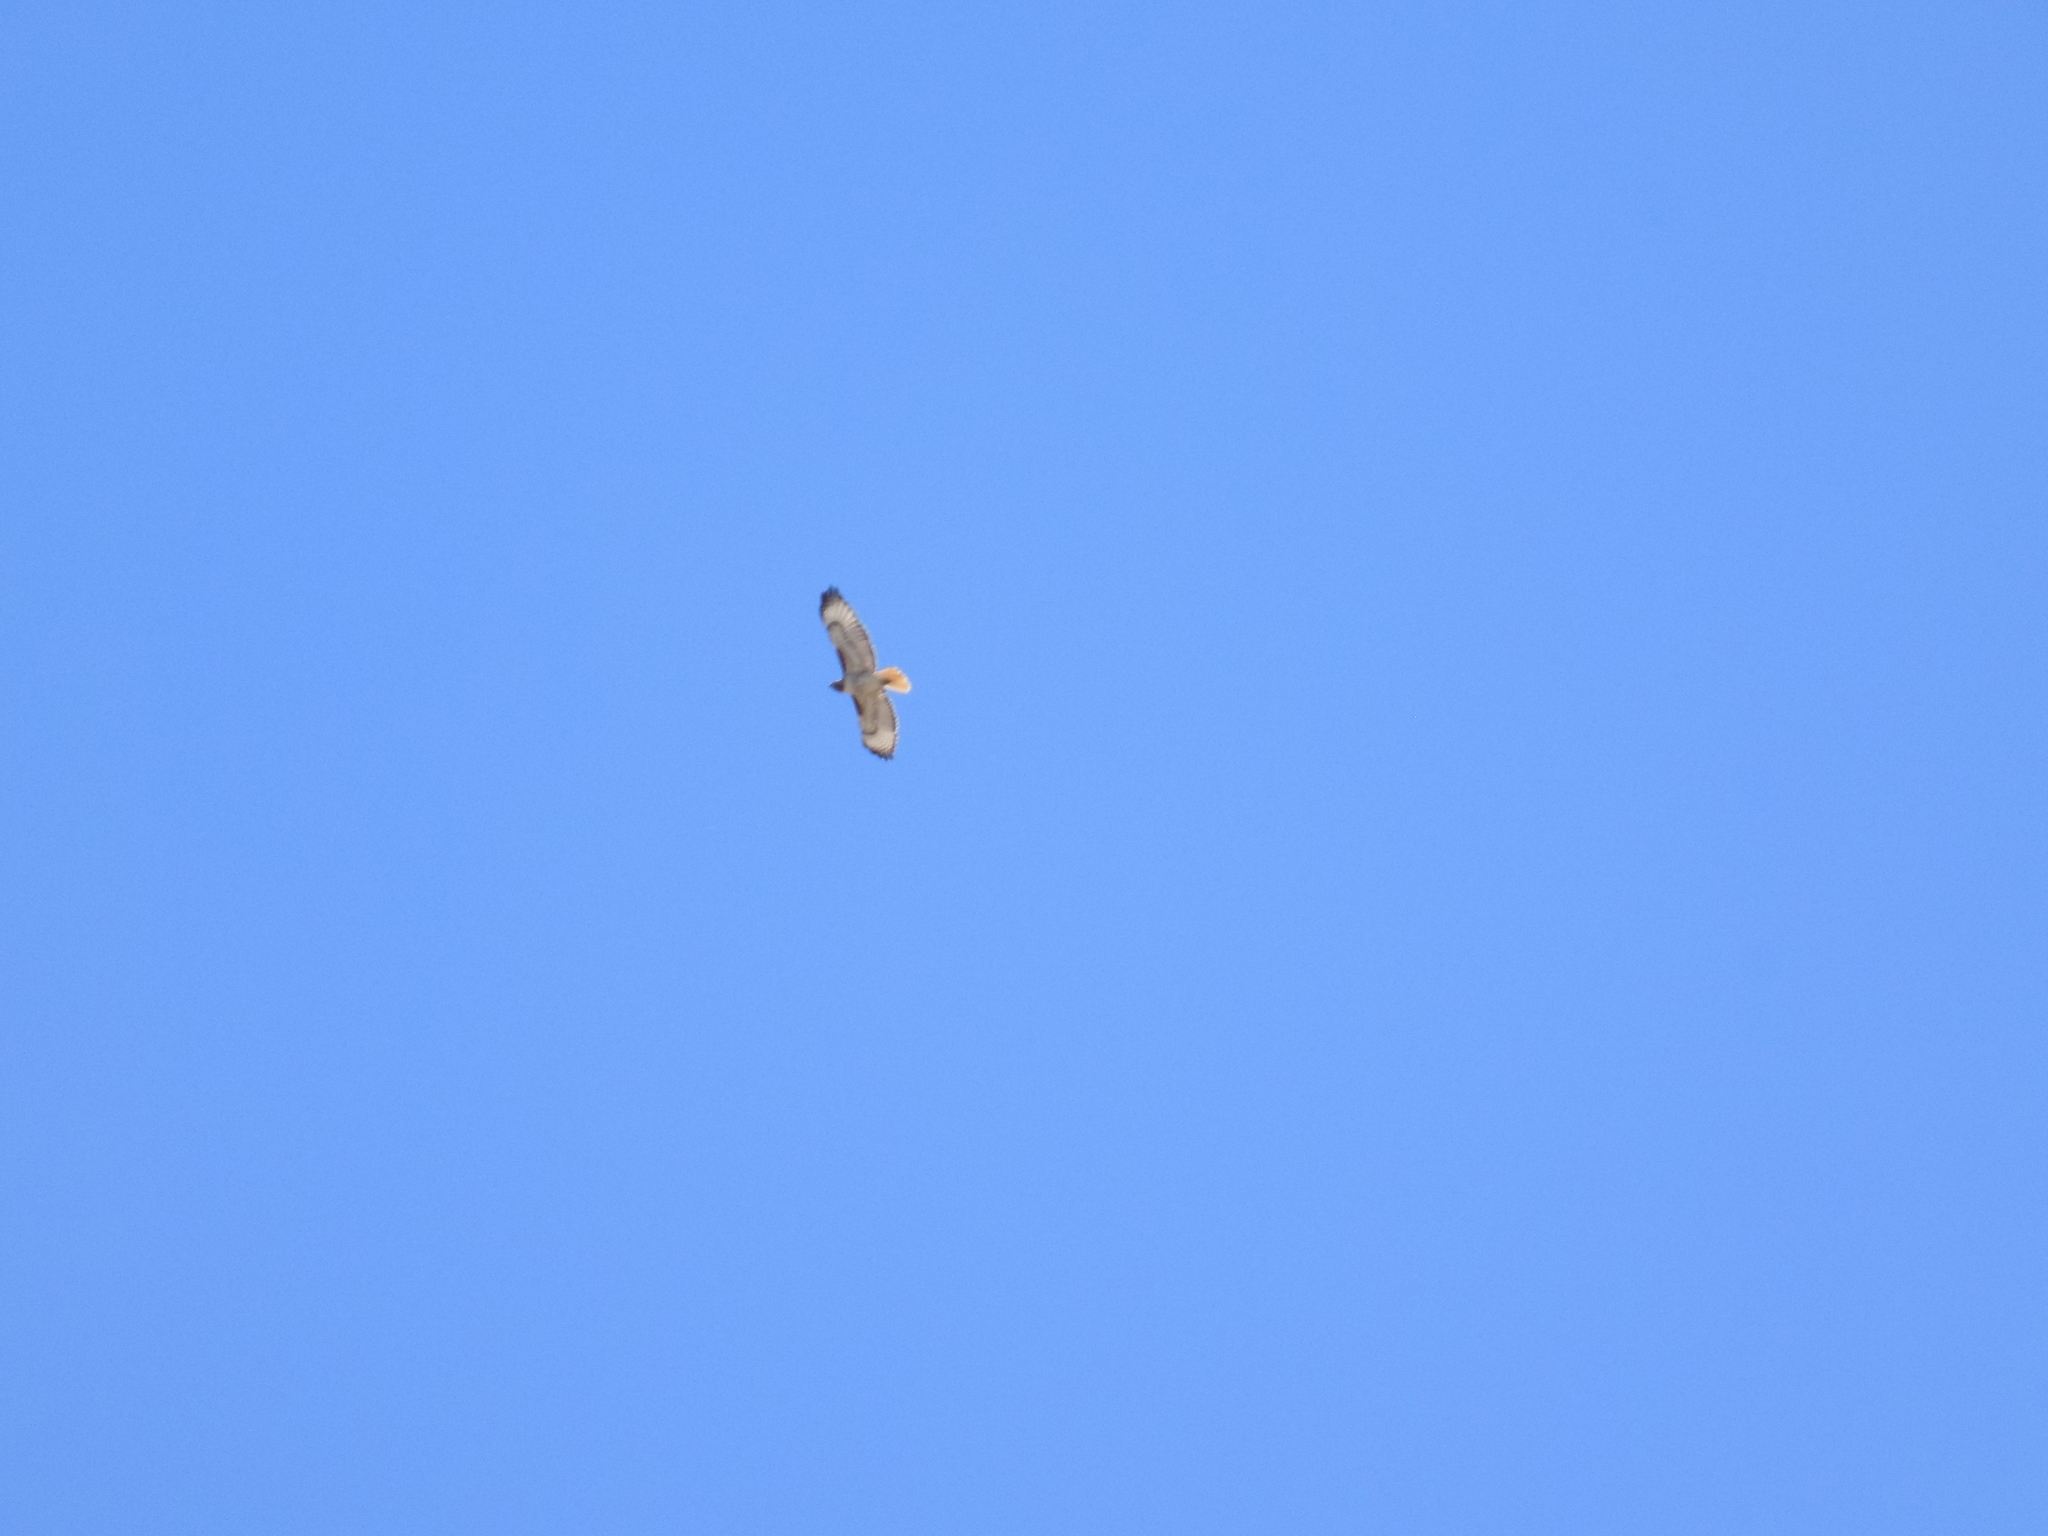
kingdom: Animalia
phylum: Chordata
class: Aves
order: Accipitriformes
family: Accipitridae
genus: Buteo
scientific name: Buteo jamaicensis
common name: Red-tailed hawk
